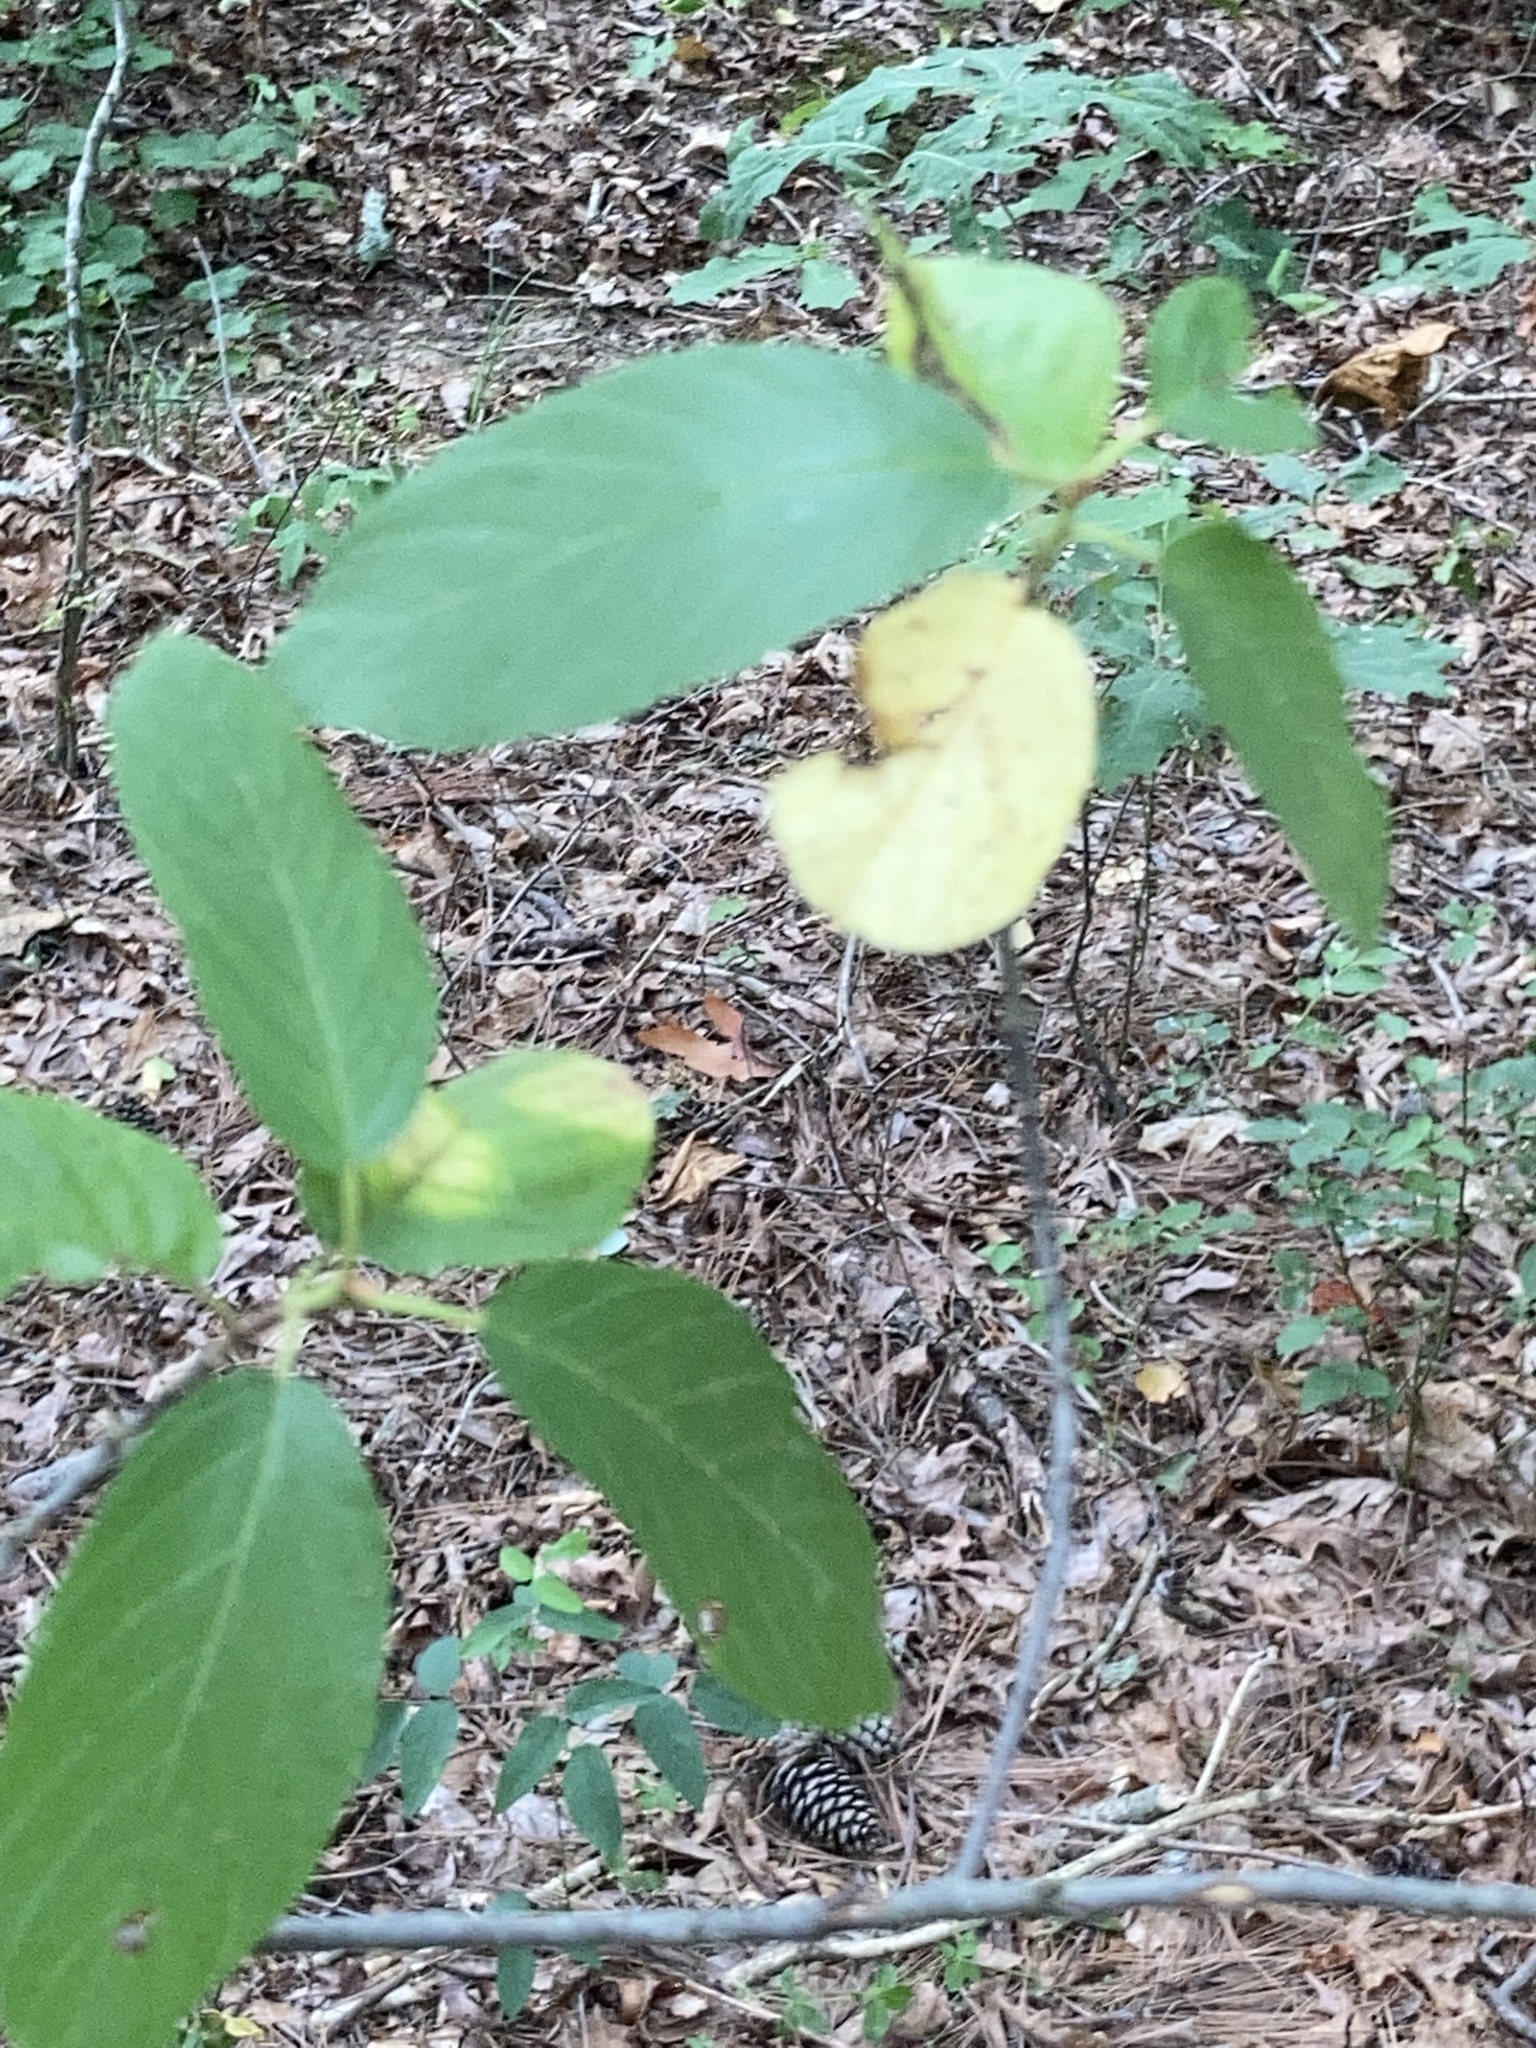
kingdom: Plantae
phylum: Tracheophyta
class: Magnoliopsida
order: Rosales
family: Rhamnaceae
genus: Frangula
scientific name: Frangula caroliniana
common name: Carolina buckthorn
